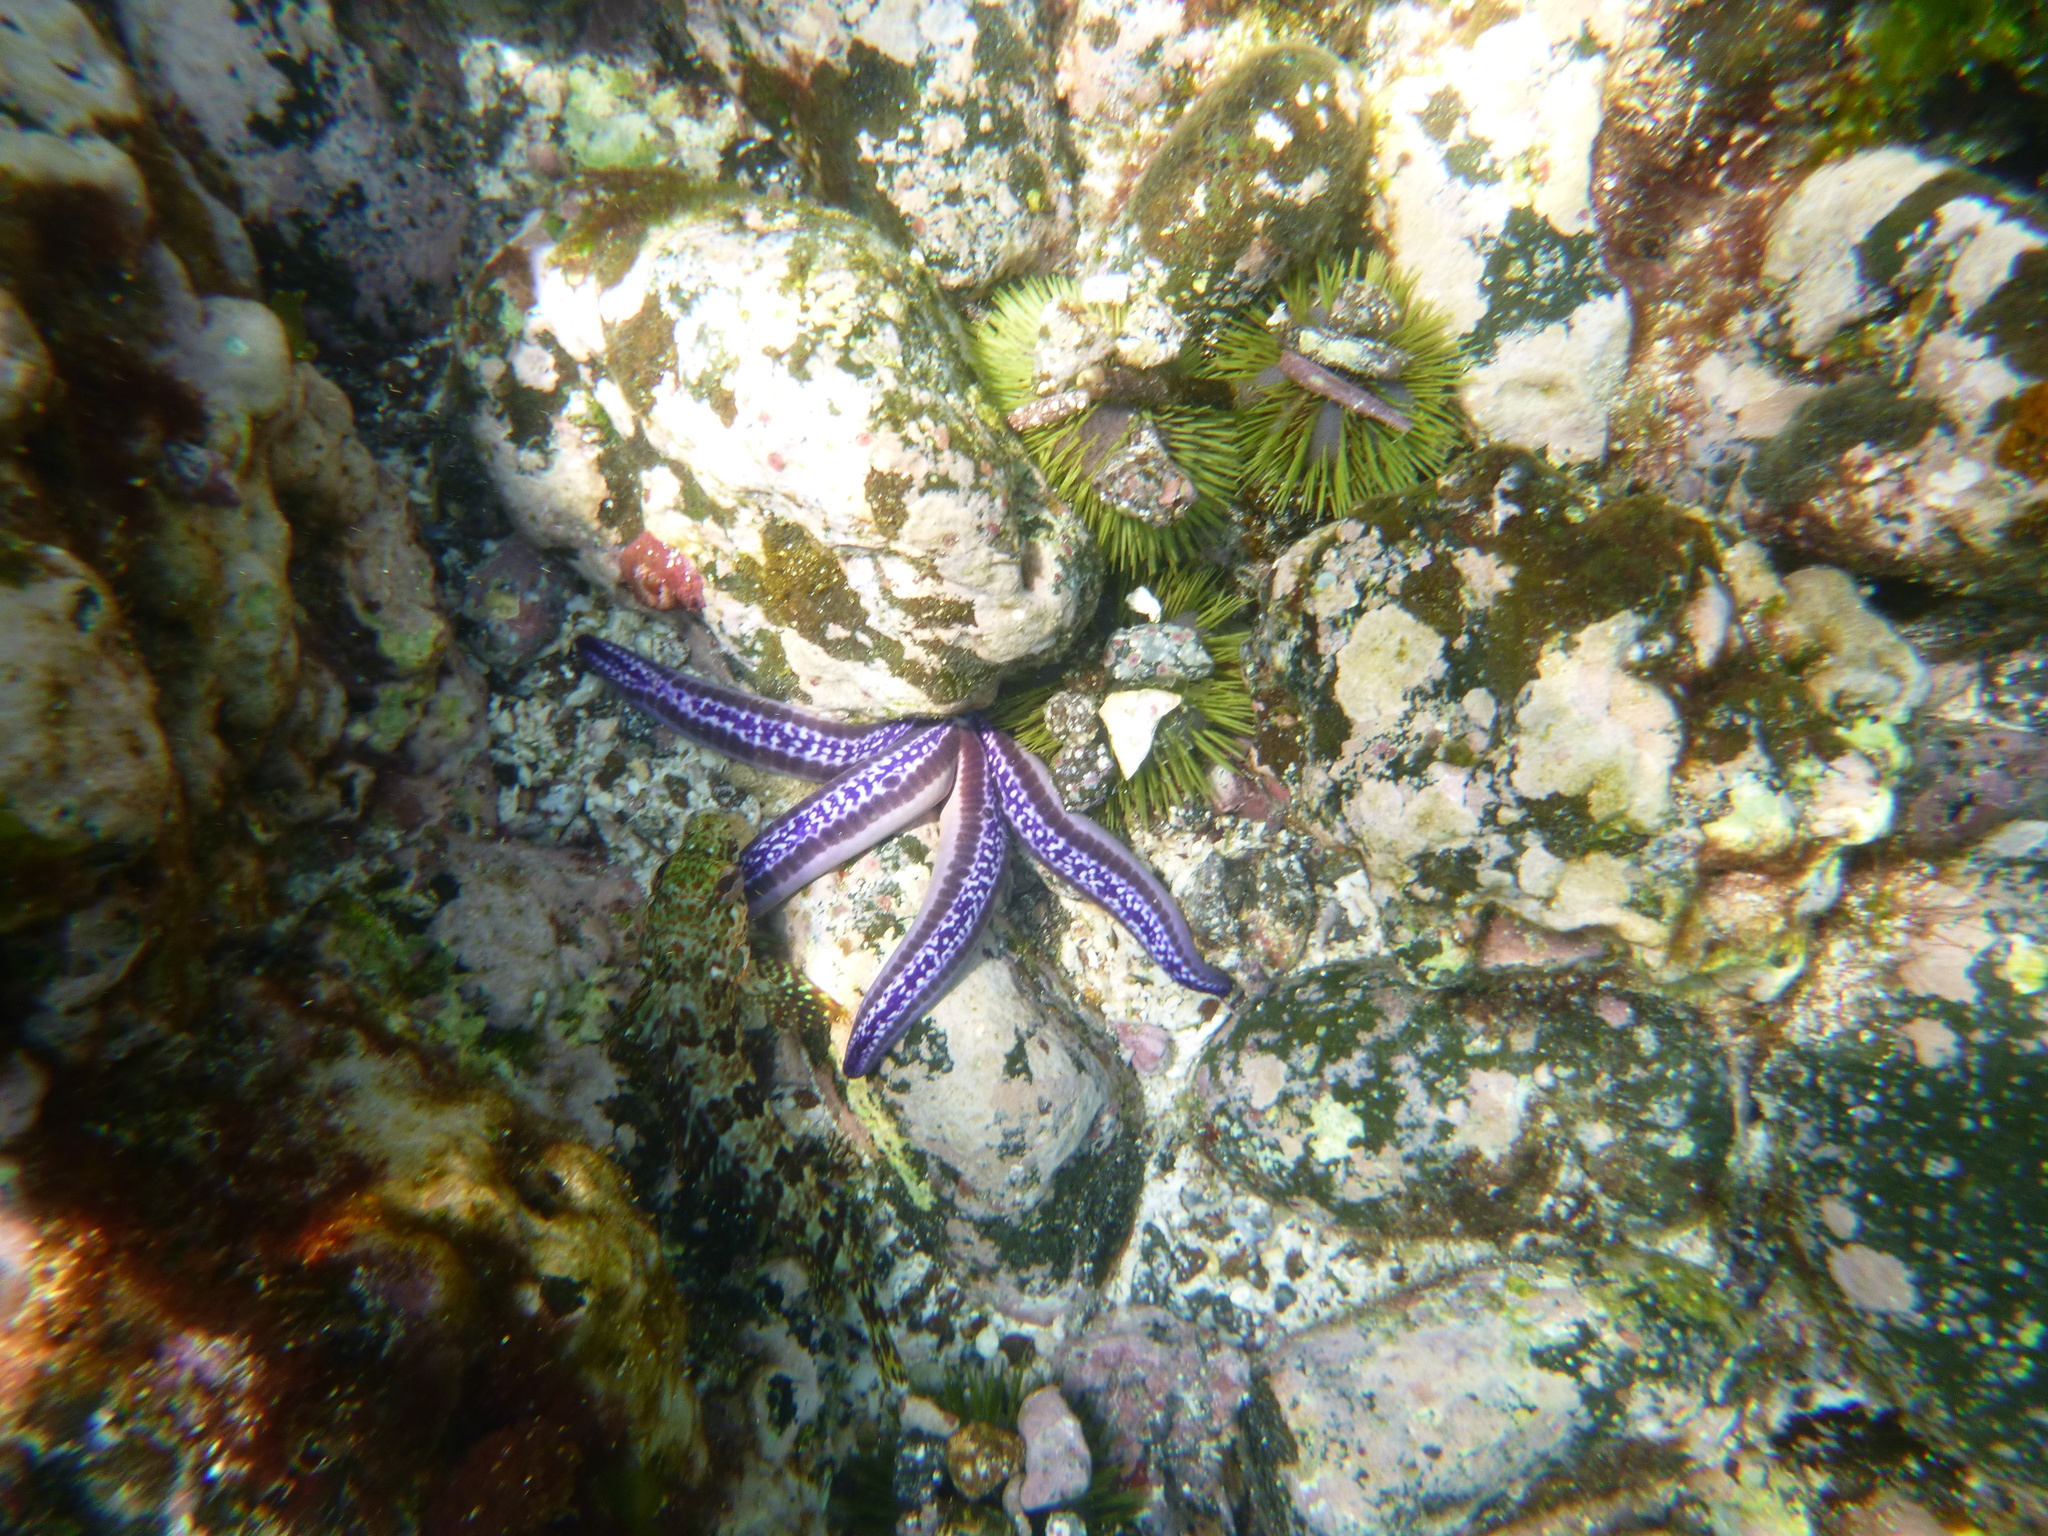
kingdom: Animalia
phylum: Echinodermata
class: Asteroidea
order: Valvatida
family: Ophidiasteridae
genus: Phataria
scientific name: Phataria unifascialis
